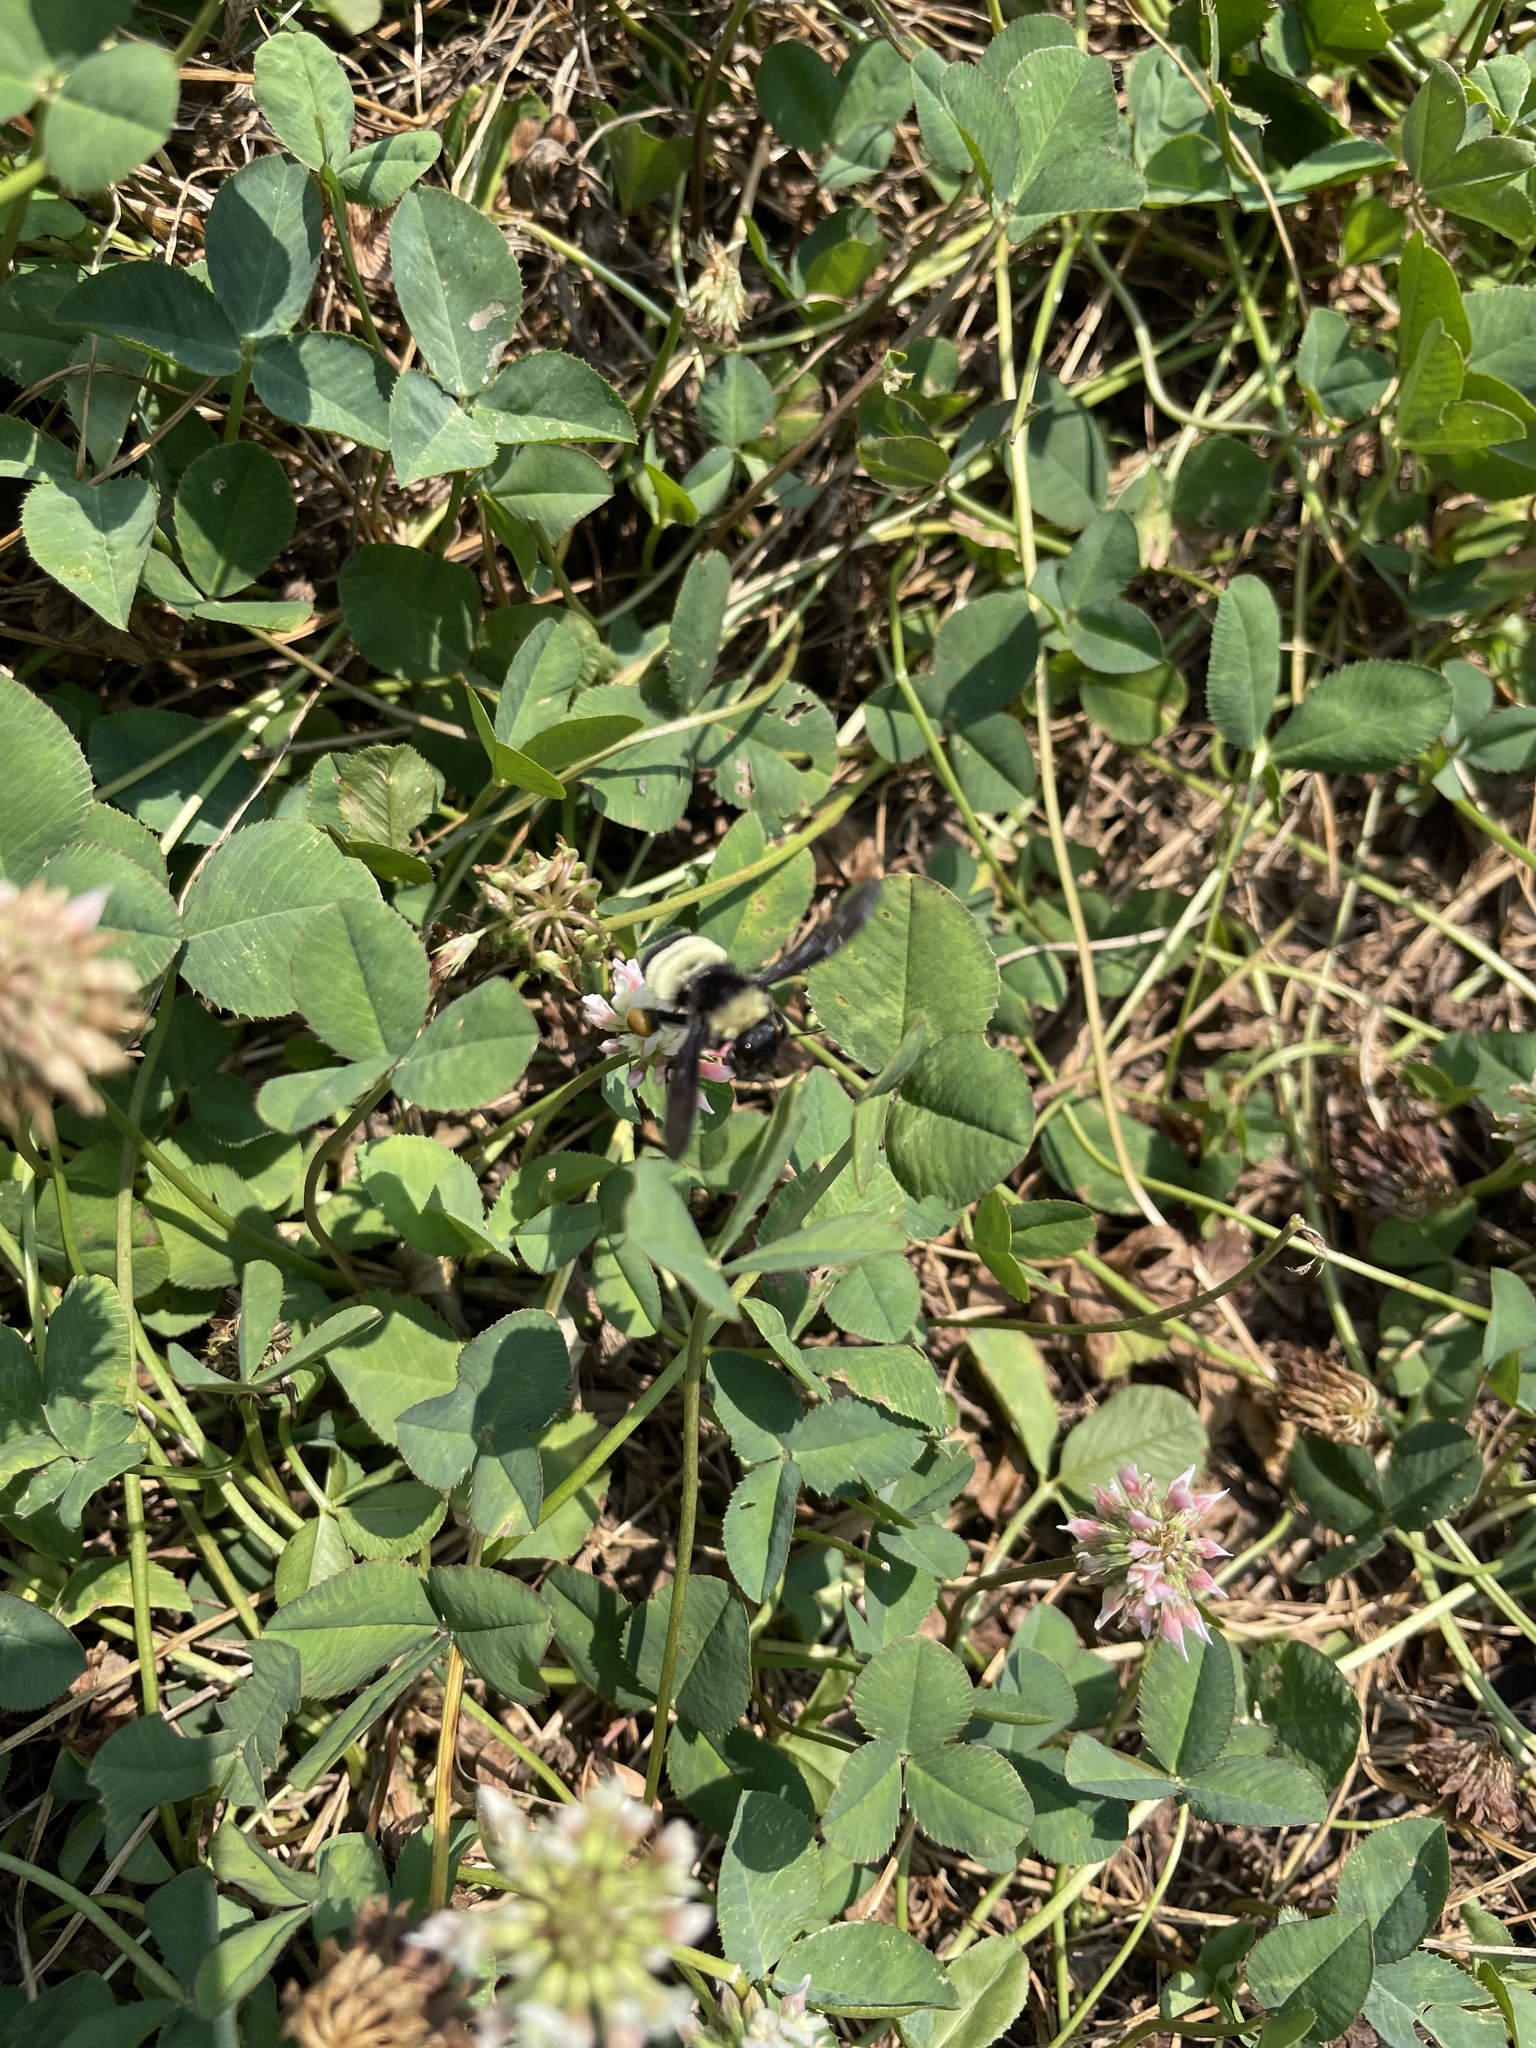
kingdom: Animalia
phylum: Arthropoda
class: Insecta
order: Hymenoptera
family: Apidae
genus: Bombus
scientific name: Bombus pensylvanicus
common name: Bumble bee
